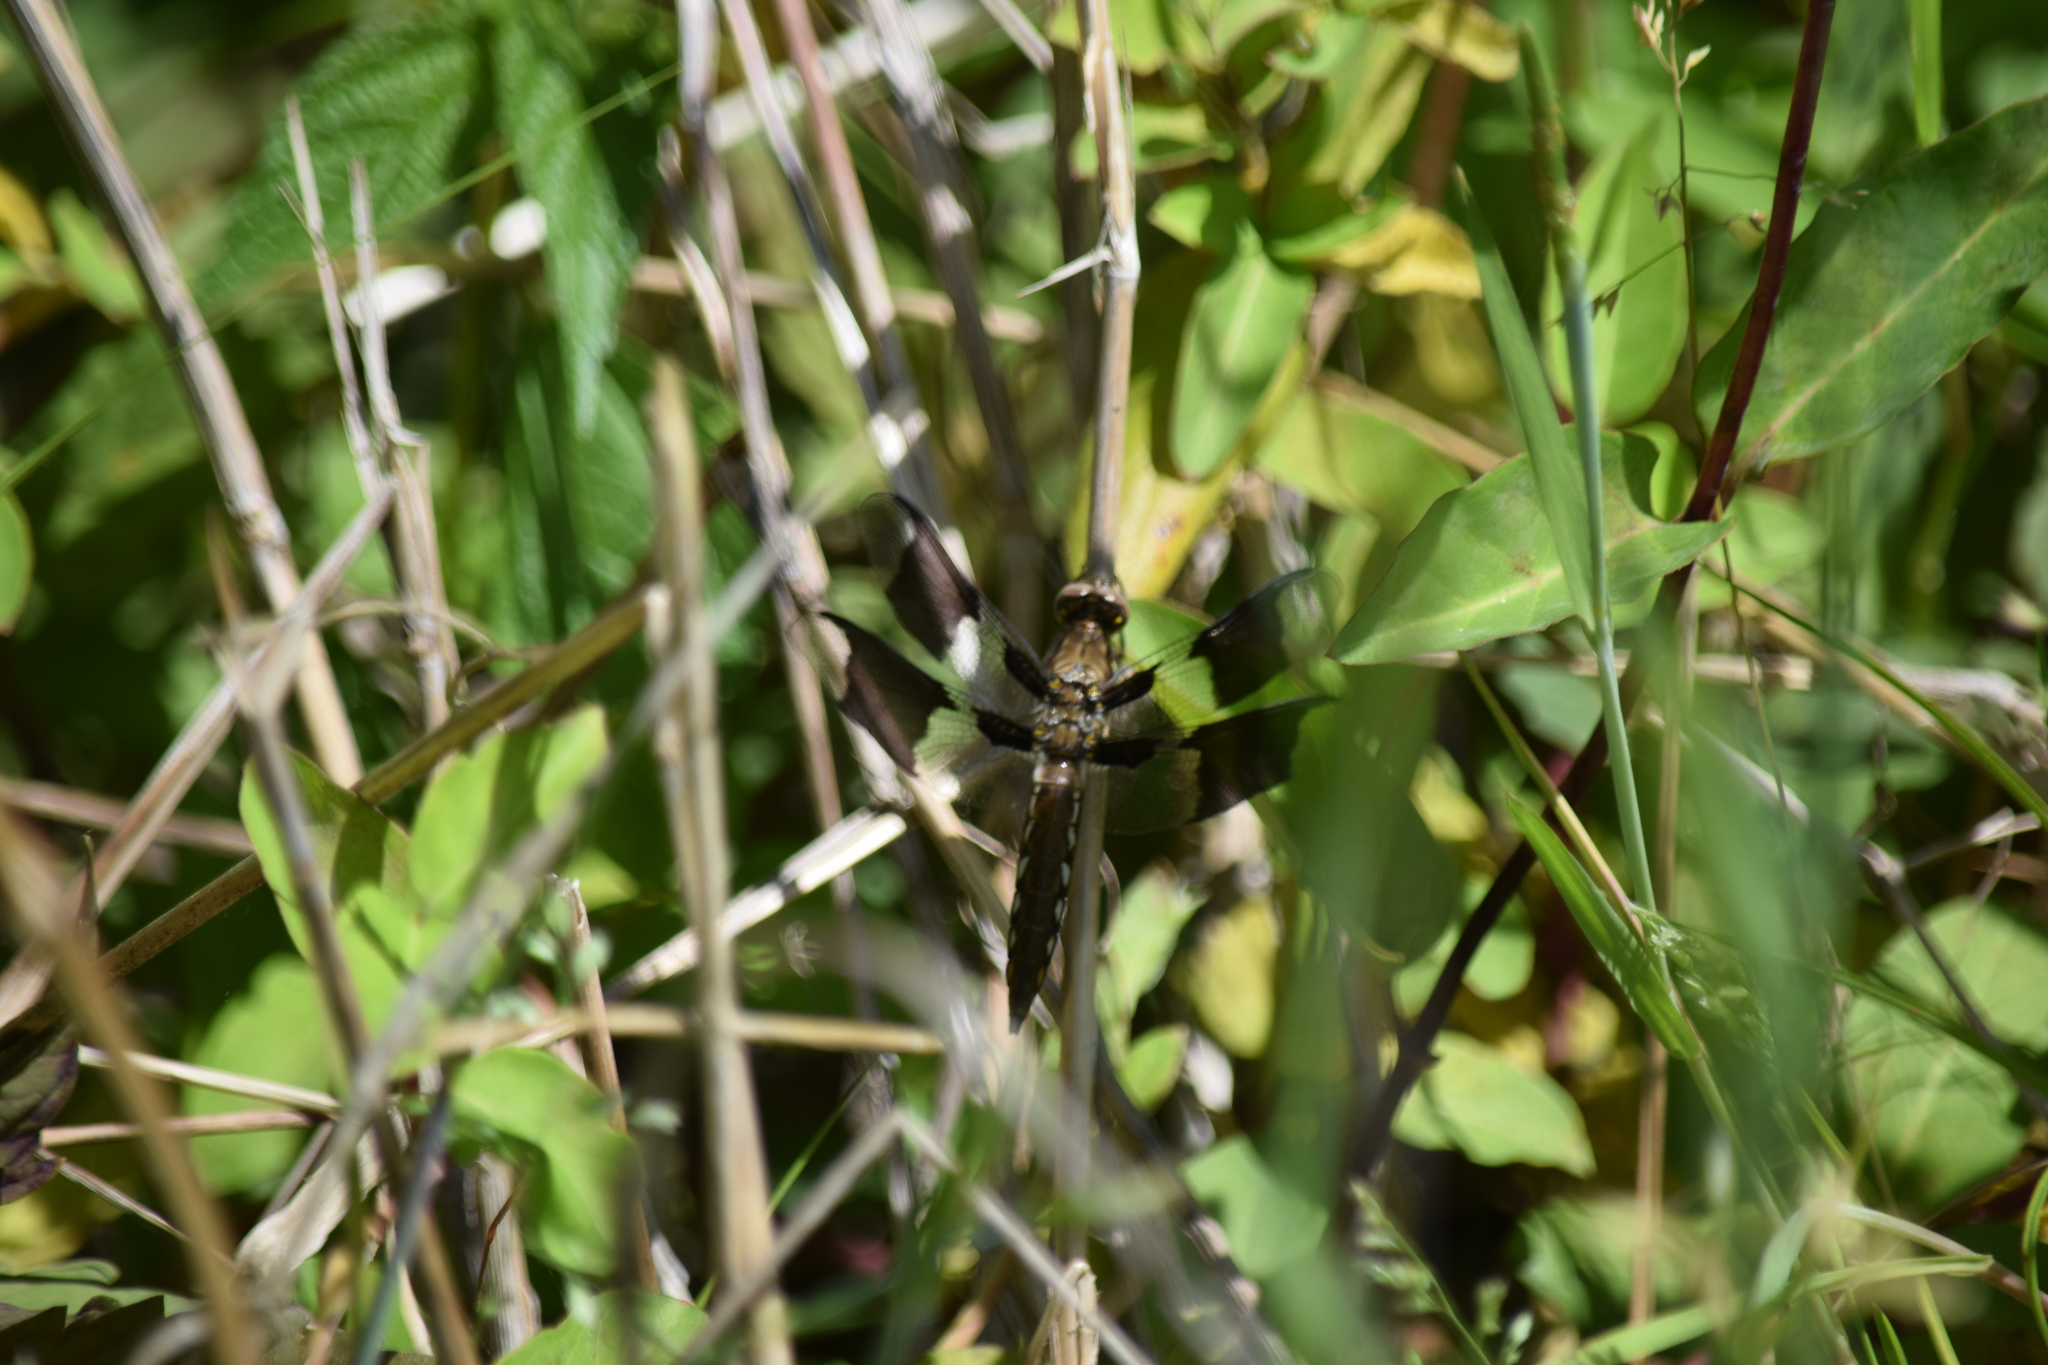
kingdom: Animalia
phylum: Arthropoda
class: Insecta
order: Odonata
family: Libellulidae
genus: Plathemis
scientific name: Plathemis lydia
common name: Common whitetail
